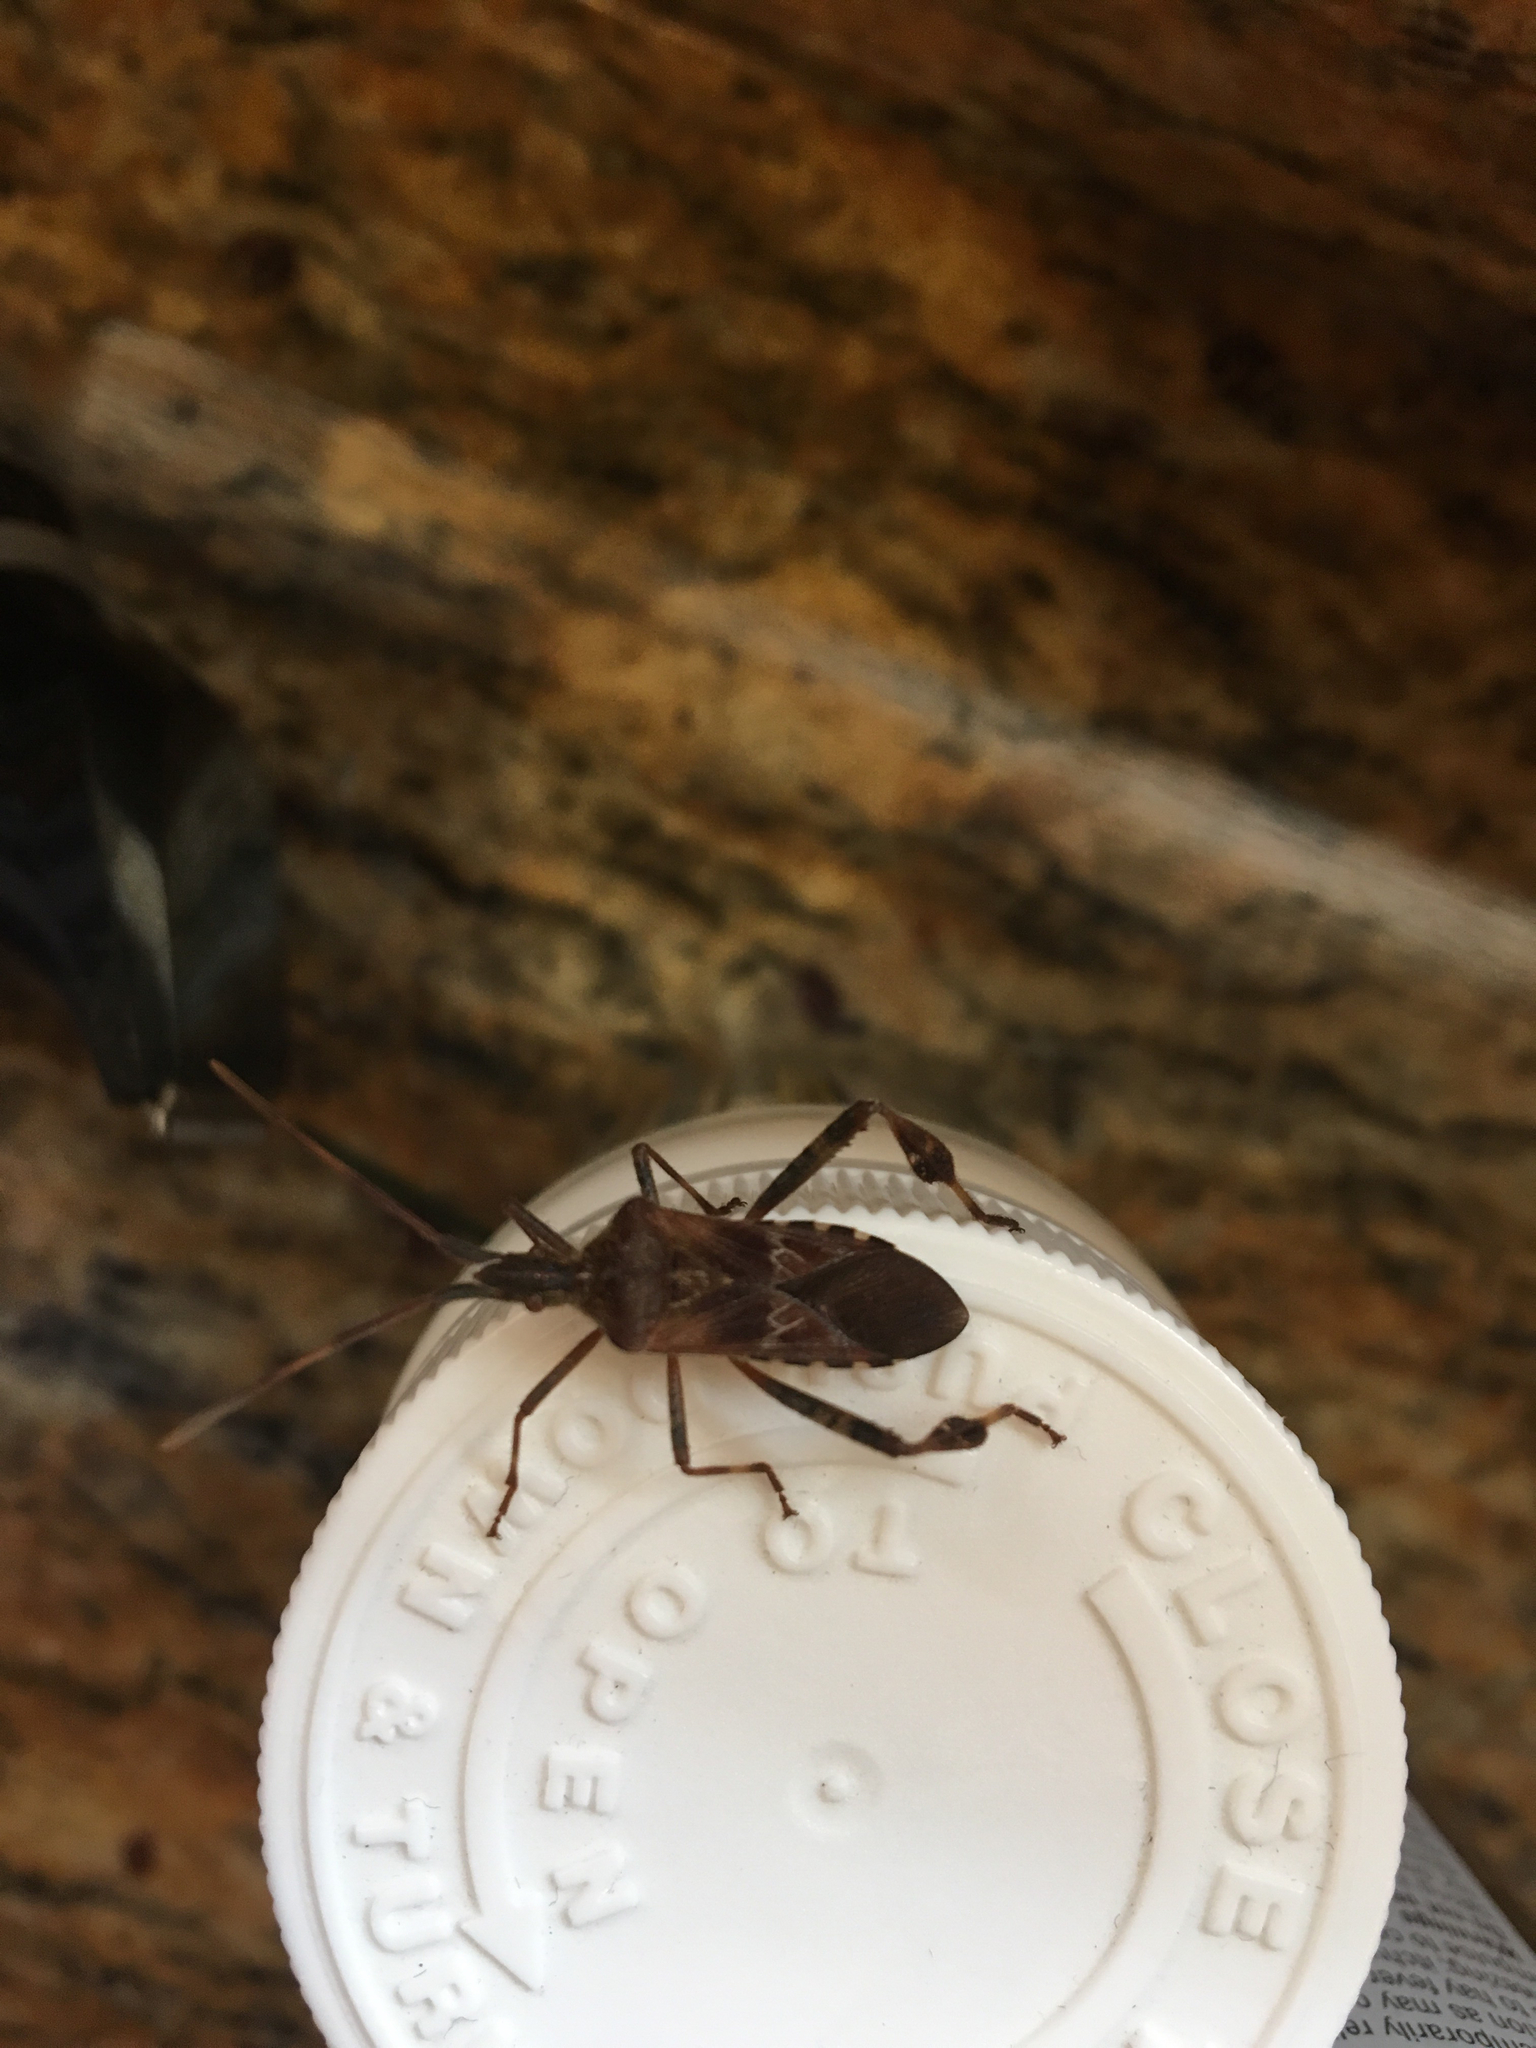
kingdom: Animalia
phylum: Arthropoda
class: Insecta
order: Hemiptera
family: Coreidae
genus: Leptoglossus
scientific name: Leptoglossus occidentalis
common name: Western conifer-seed bug
